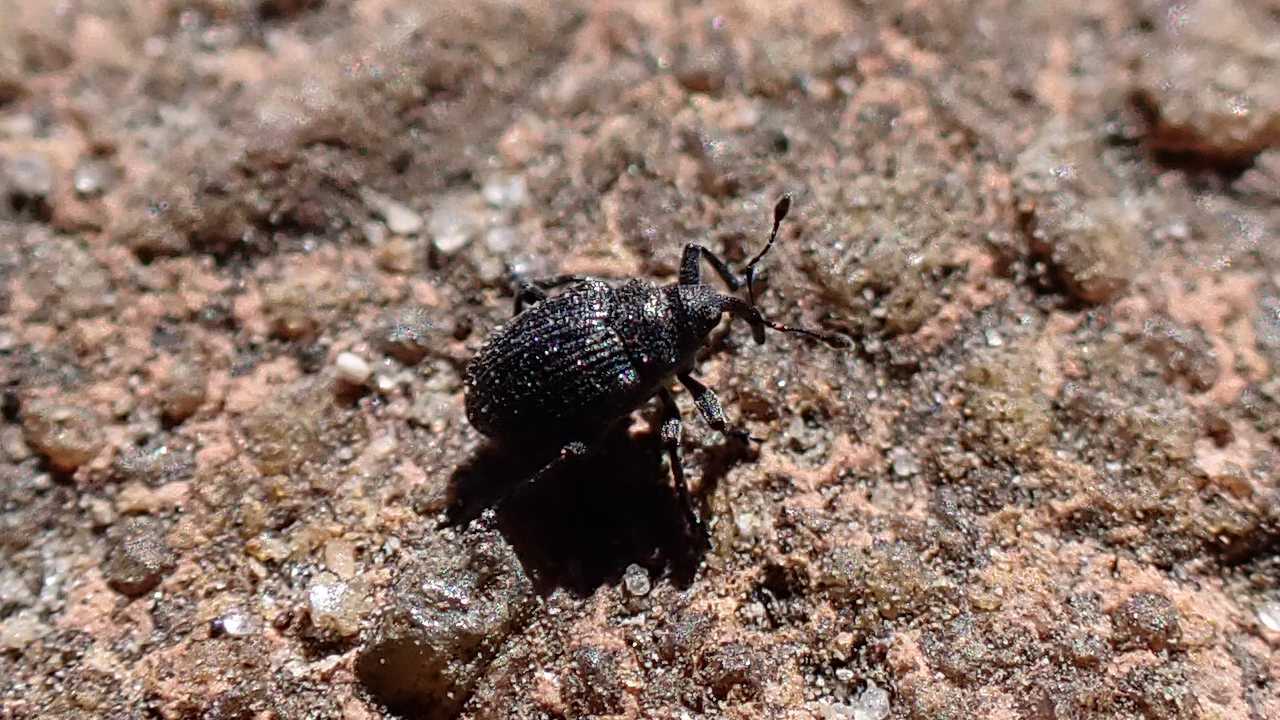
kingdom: Animalia
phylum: Arthropoda
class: Insecta
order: Coleoptera
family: Curculionidae
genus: Ceutorhynchus
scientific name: Ceutorhynchus
